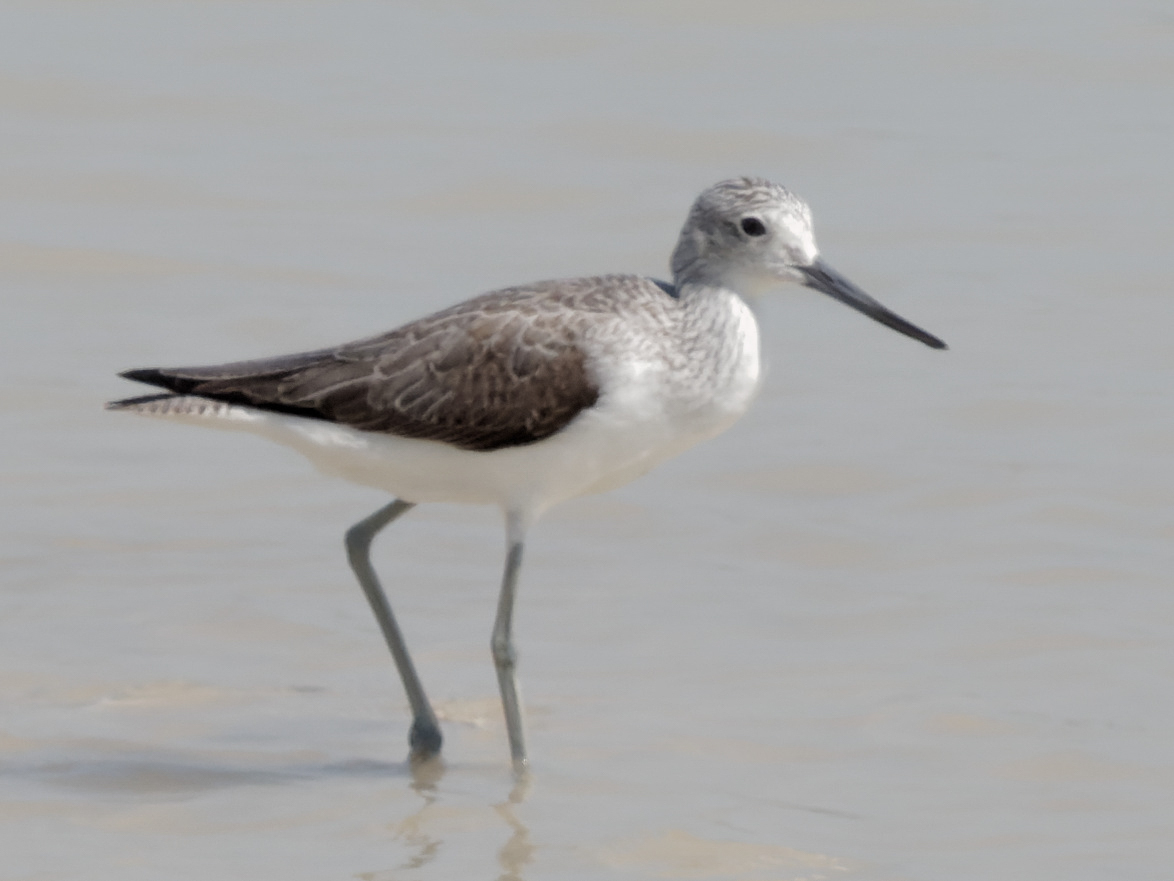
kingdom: Animalia
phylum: Chordata
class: Aves
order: Charadriiformes
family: Scolopacidae
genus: Tringa
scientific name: Tringa nebularia
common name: Common greenshank
